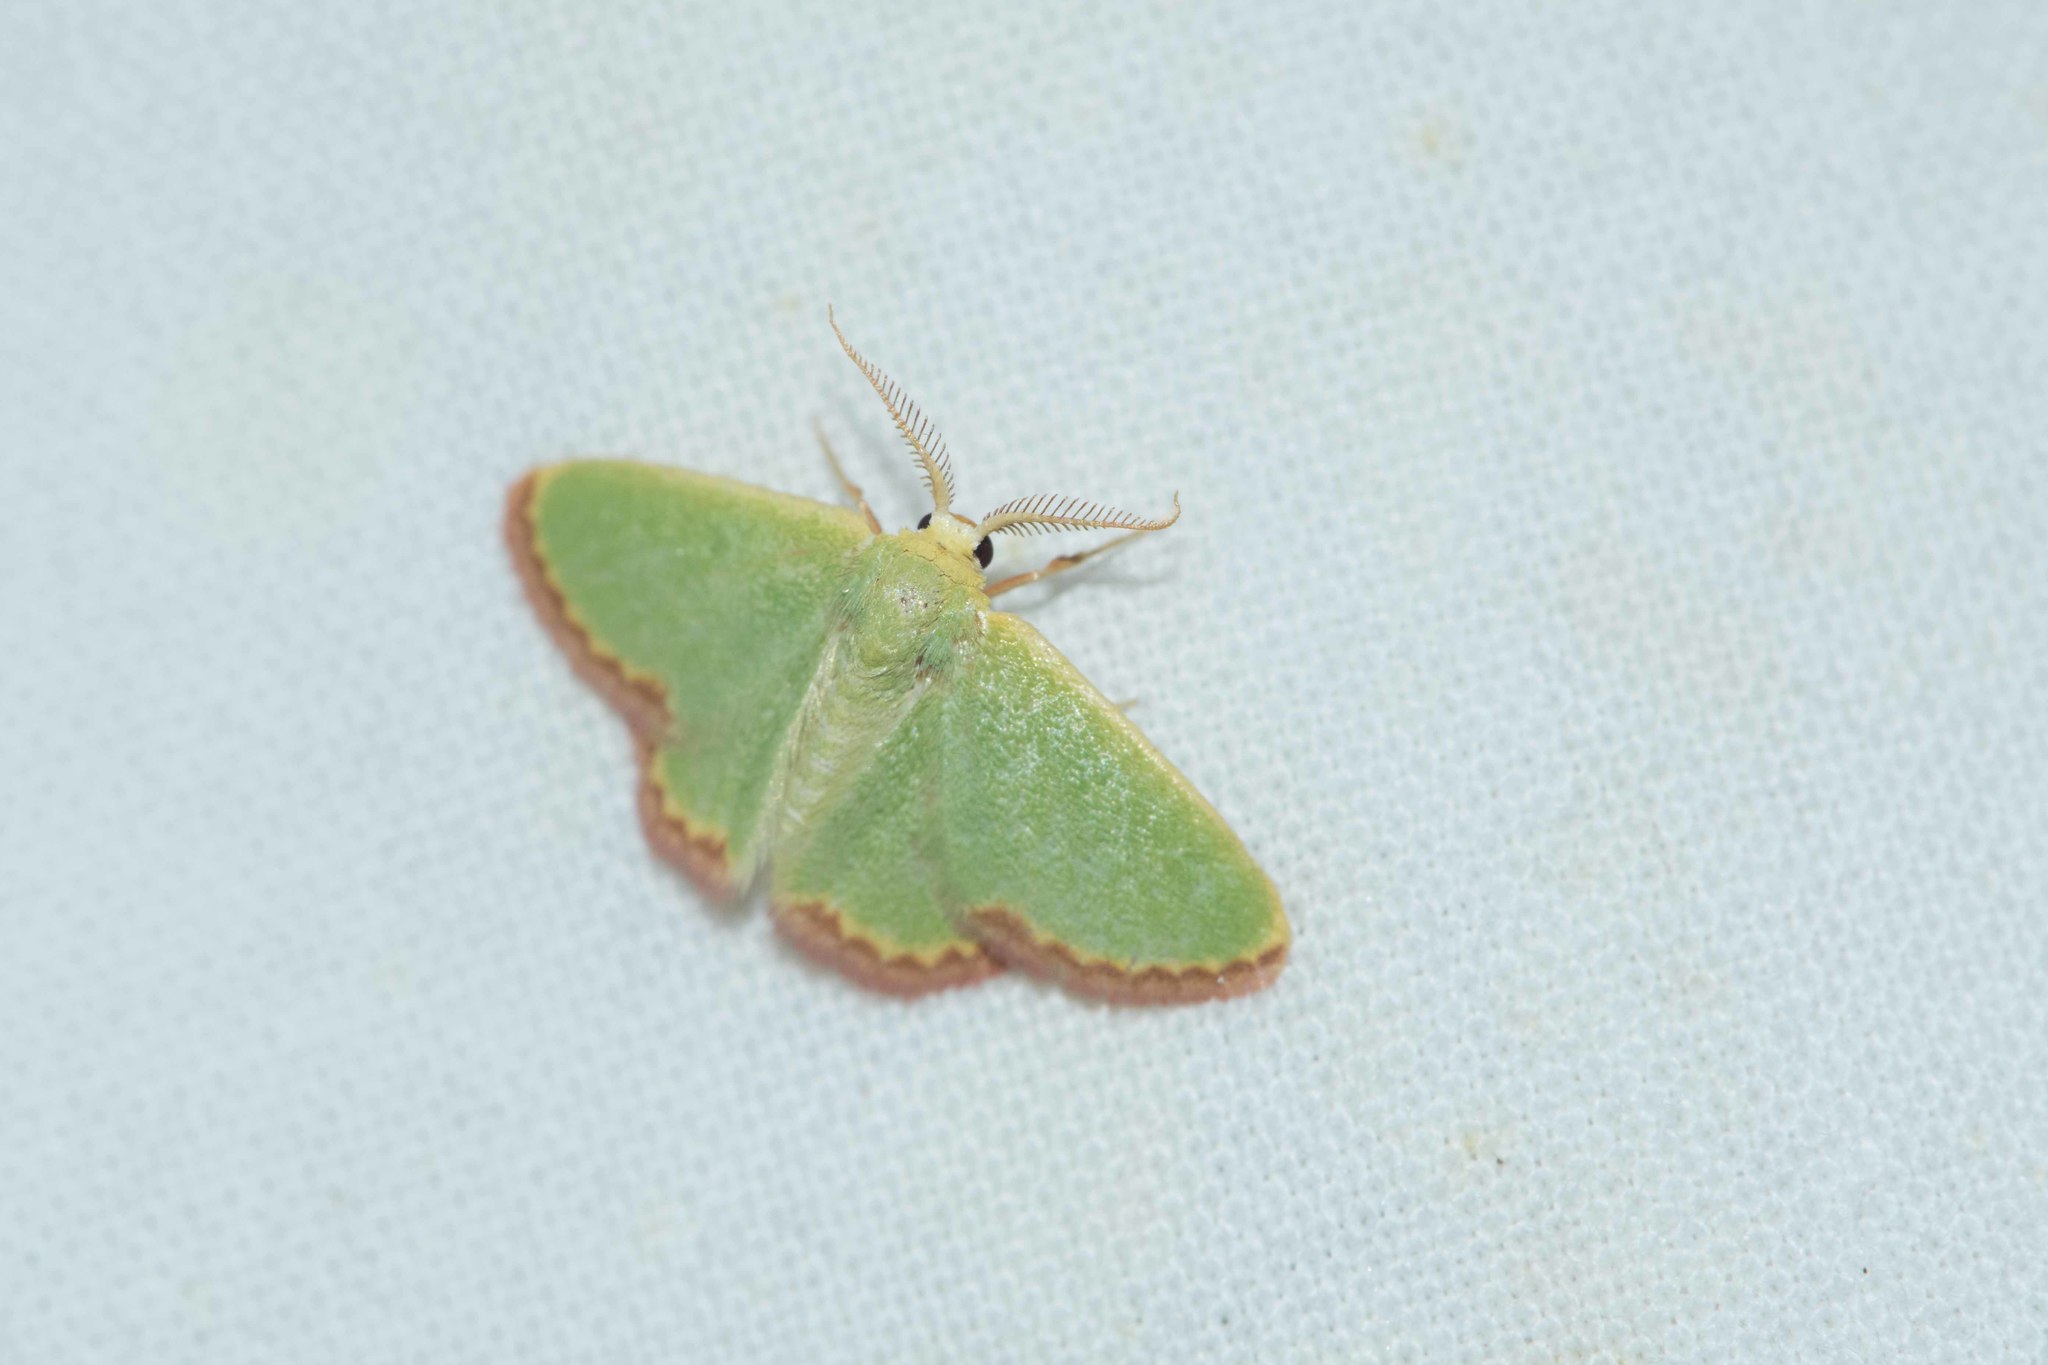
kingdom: Animalia
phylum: Arthropoda
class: Insecta
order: Lepidoptera
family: Geometridae
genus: Eucrostes
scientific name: Eucrostes indigenata
